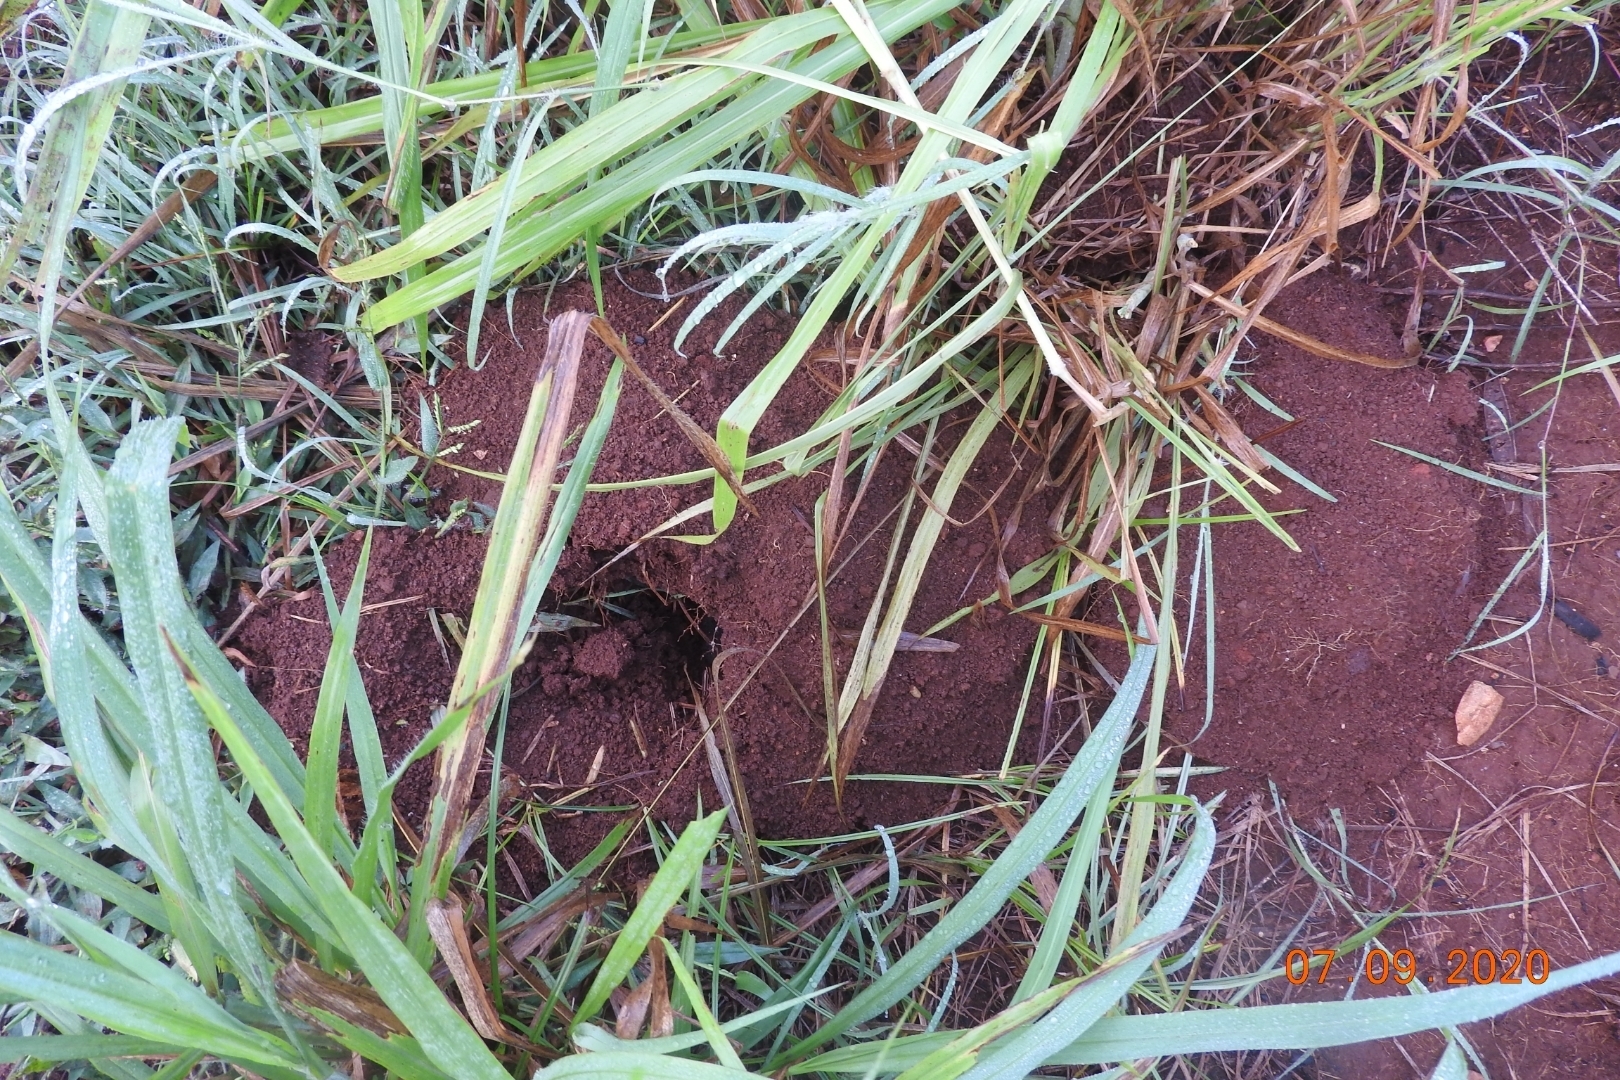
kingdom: Animalia
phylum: Chordata
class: Mammalia
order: Rodentia
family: Geomyidae
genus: Orthogeomys
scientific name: Orthogeomys hispidus
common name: Hispid pocket gopher
